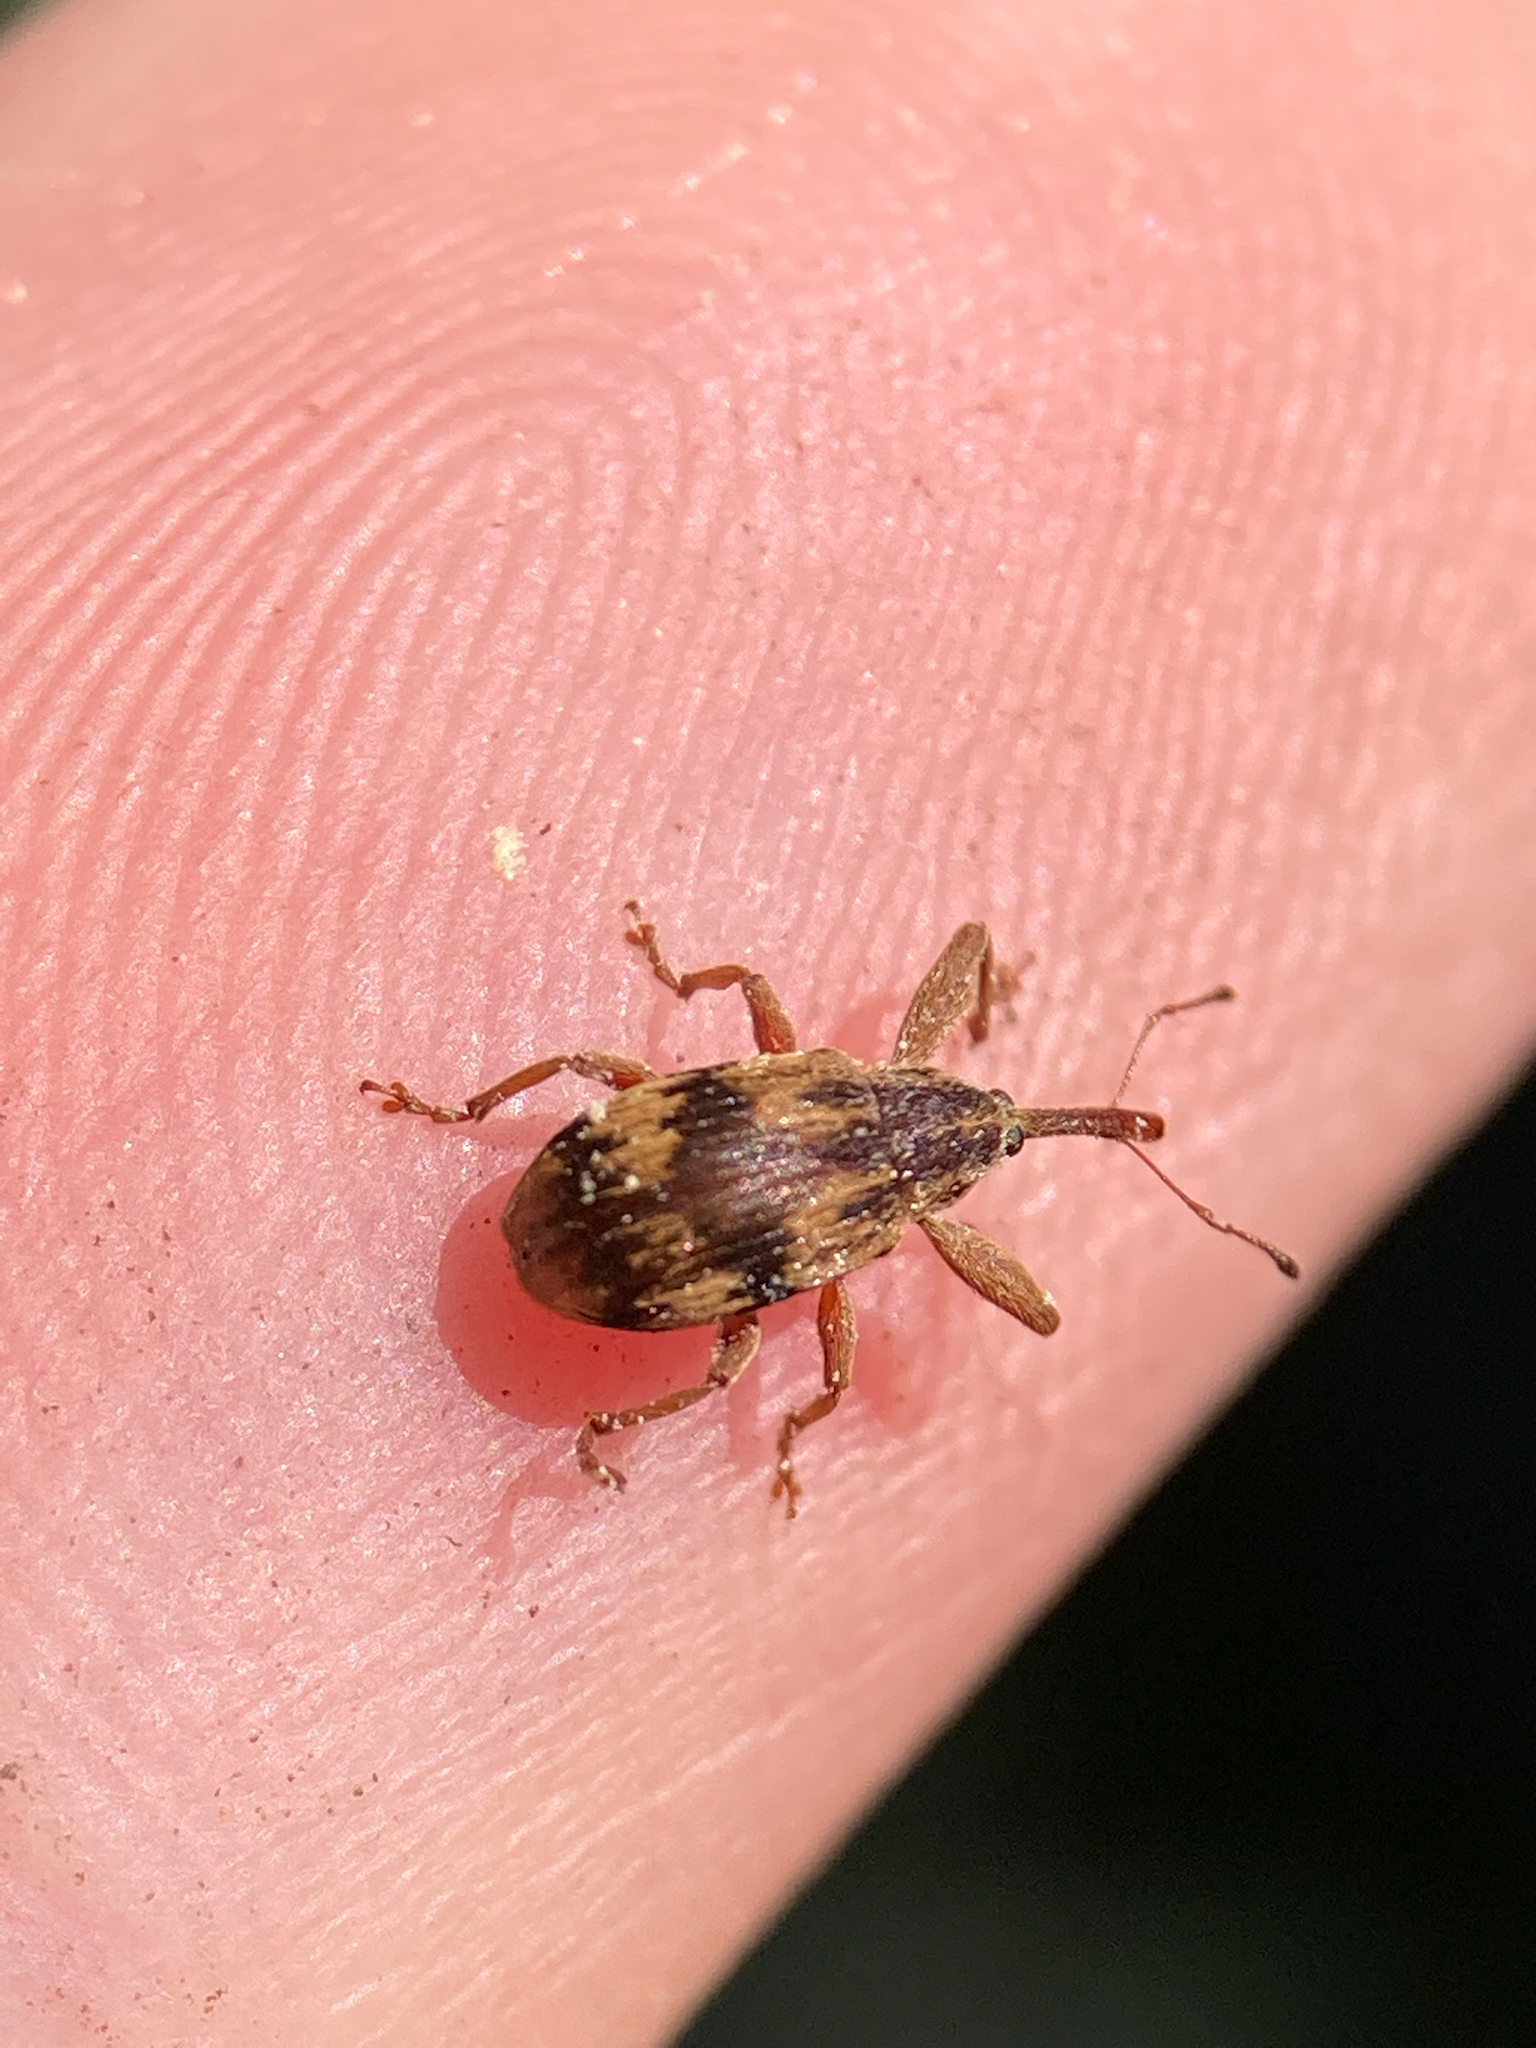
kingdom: Animalia
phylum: Arthropoda
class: Insecta
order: Coleoptera
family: Curculionidae
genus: Anthonomus
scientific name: Anthonomus rectirostris
